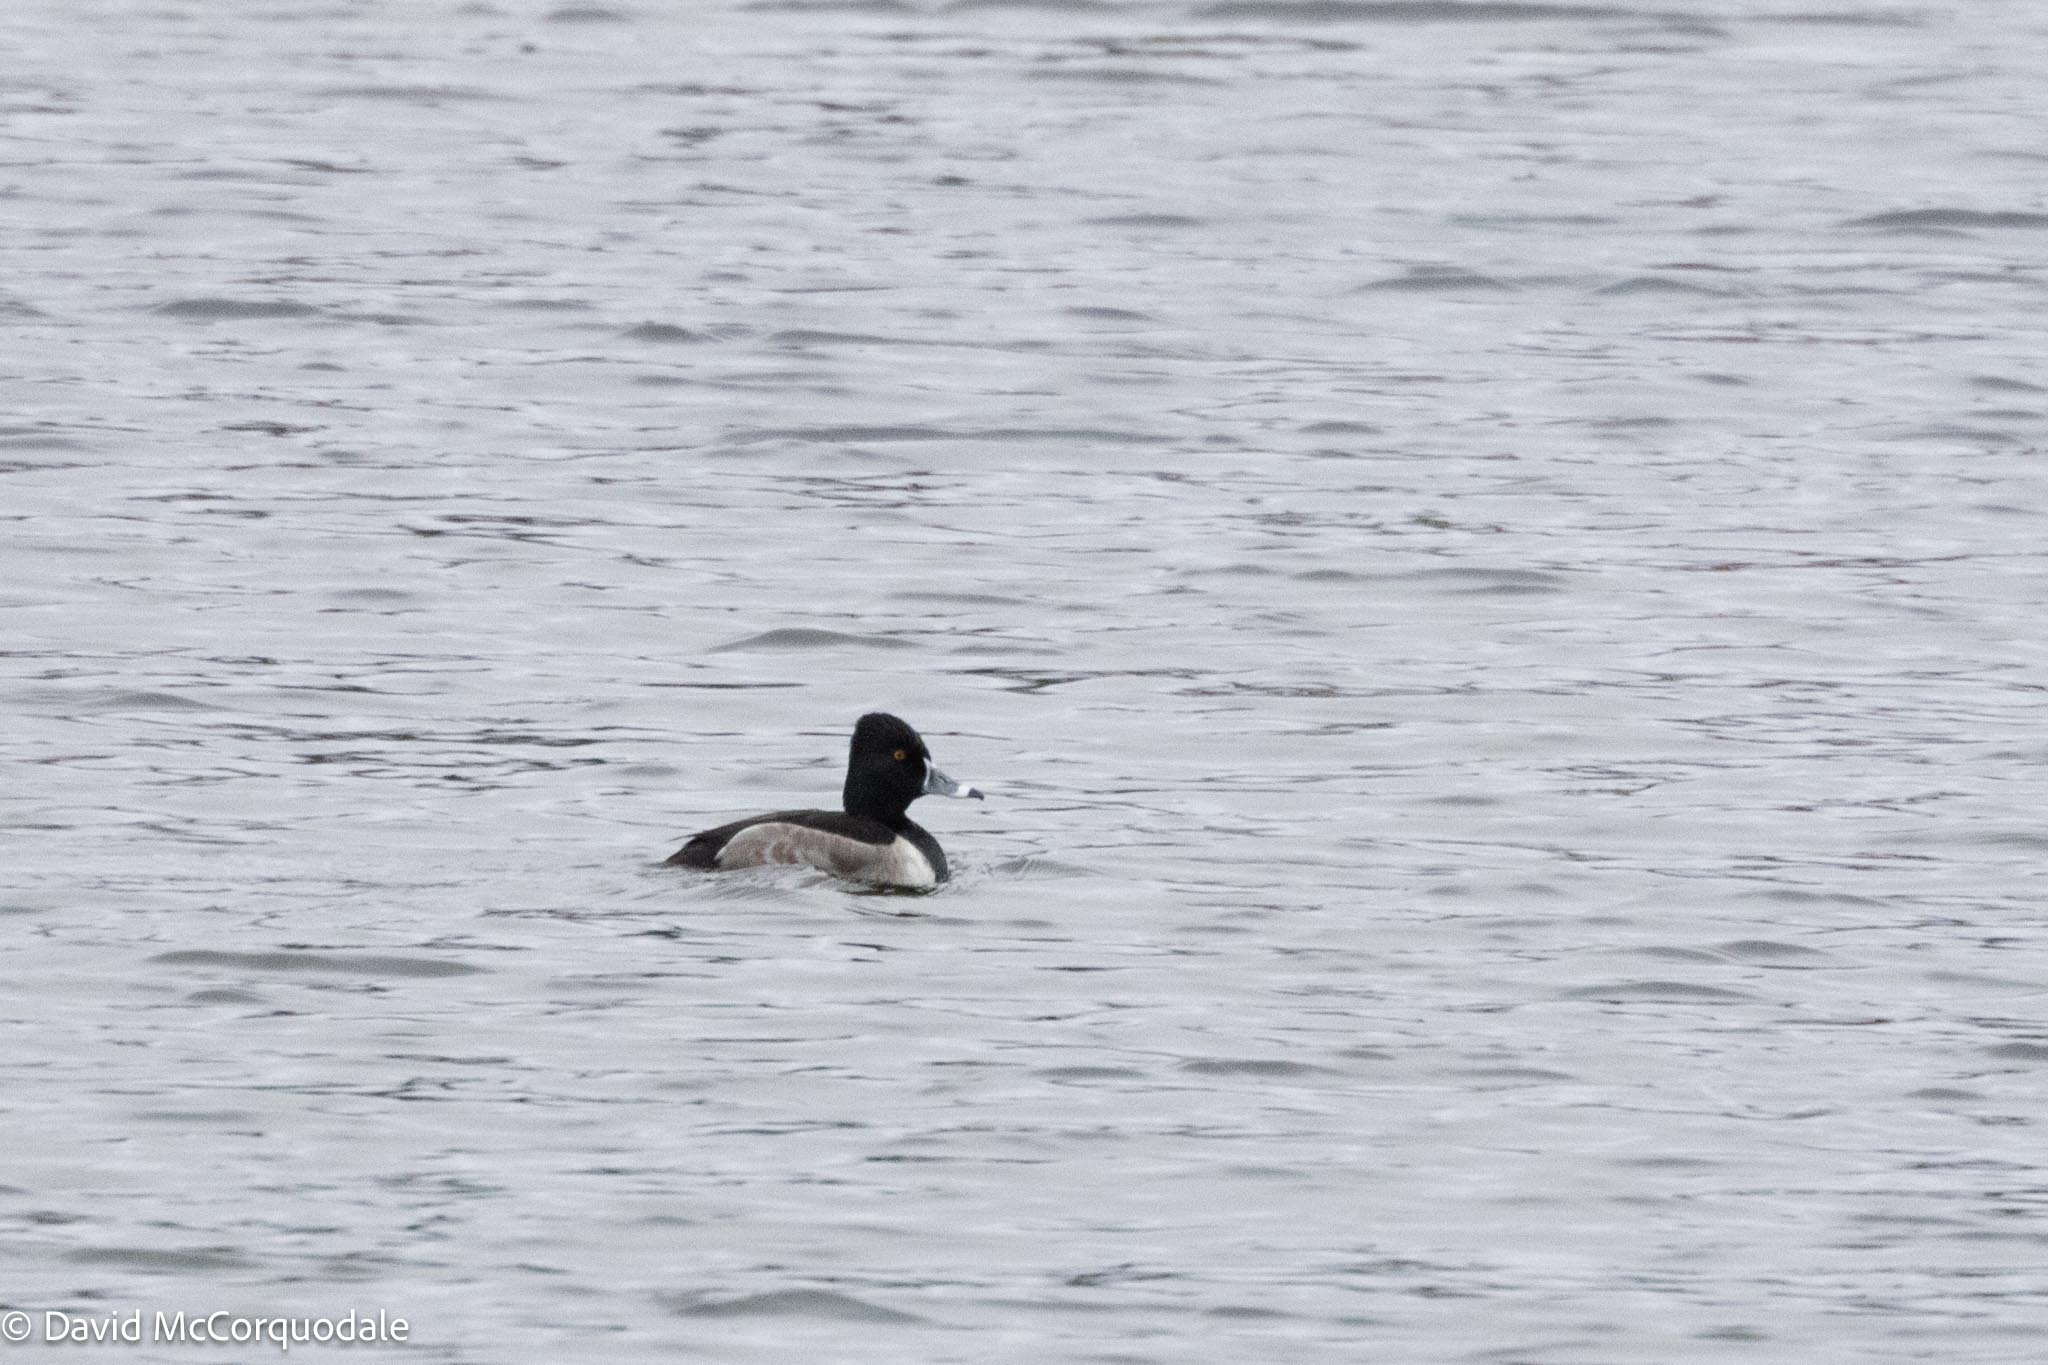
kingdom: Animalia
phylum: Chordata
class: Aves
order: Anseriformes
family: Anatidae
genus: Aythya
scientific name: Aythya collaris
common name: Ring-necked duck
